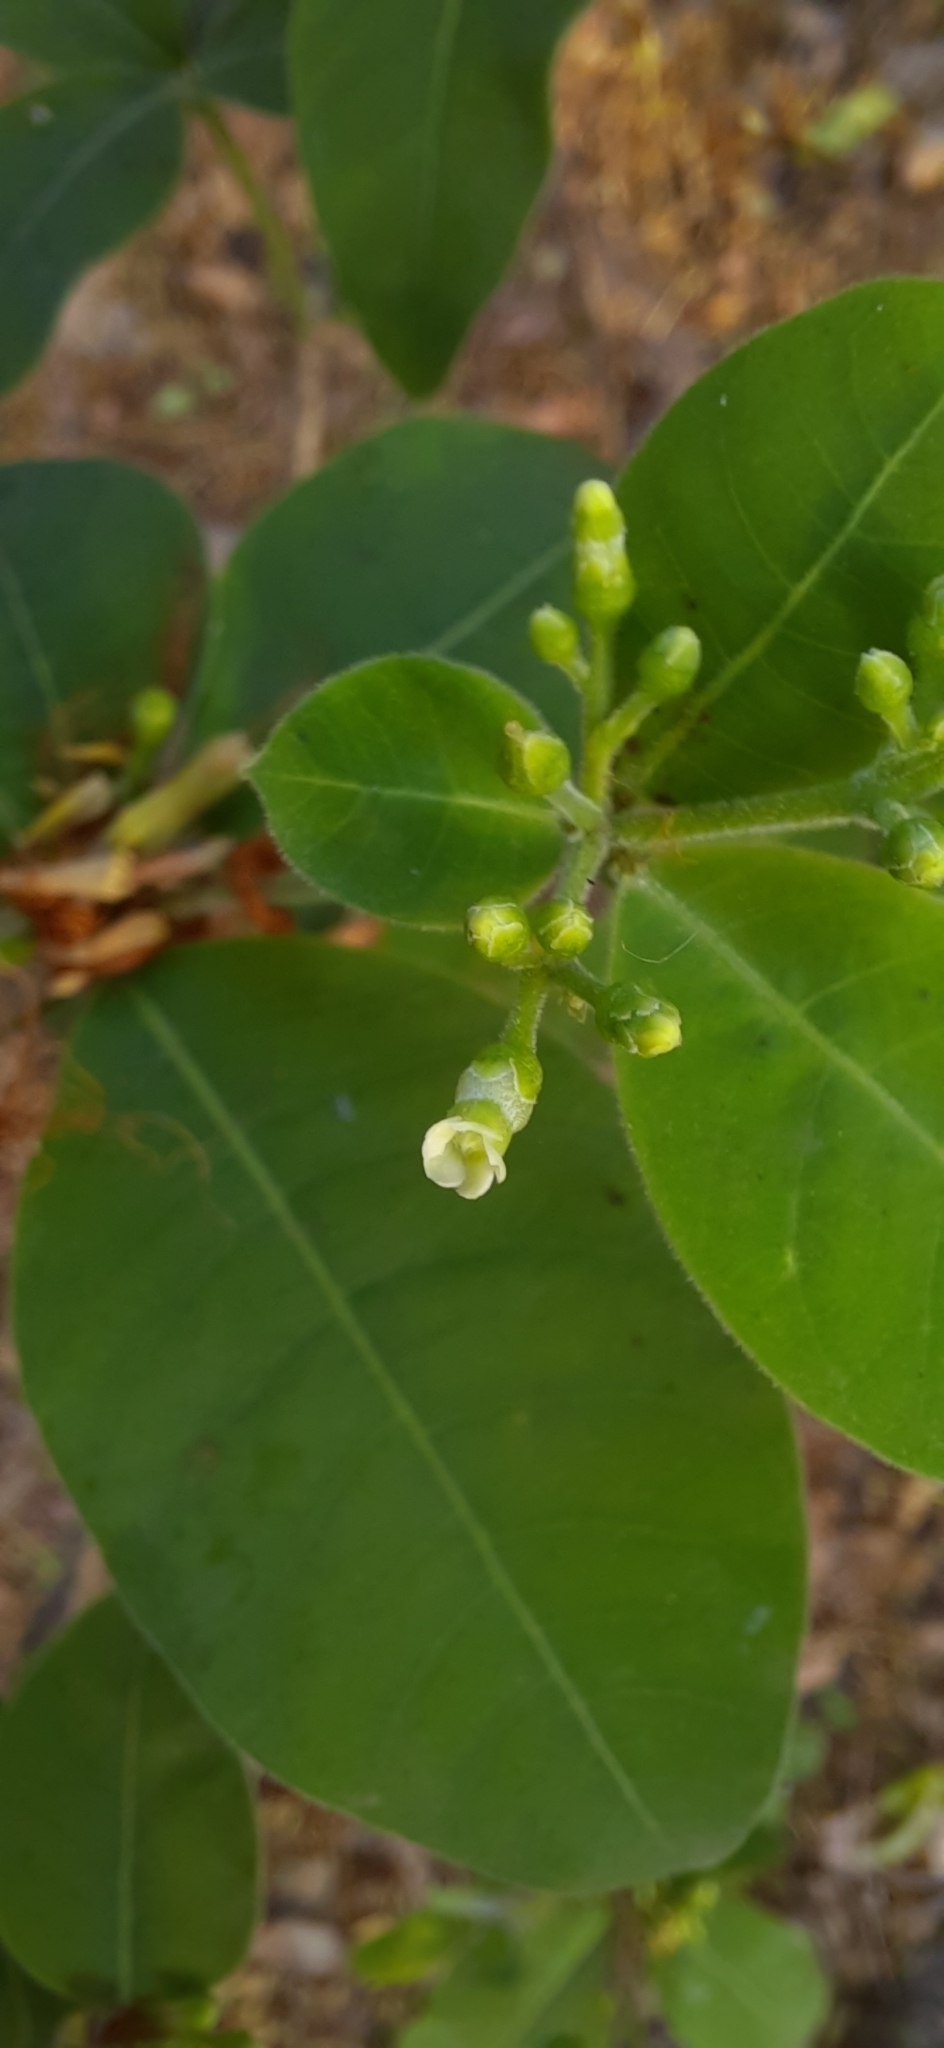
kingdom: Plantae
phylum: Tracheophyta
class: Magnoliopsida
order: Gentianales
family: Apocynaceae
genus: Rauvolfia
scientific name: Rauvolfia tetraphylla
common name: Four-leaf devil-pepper
